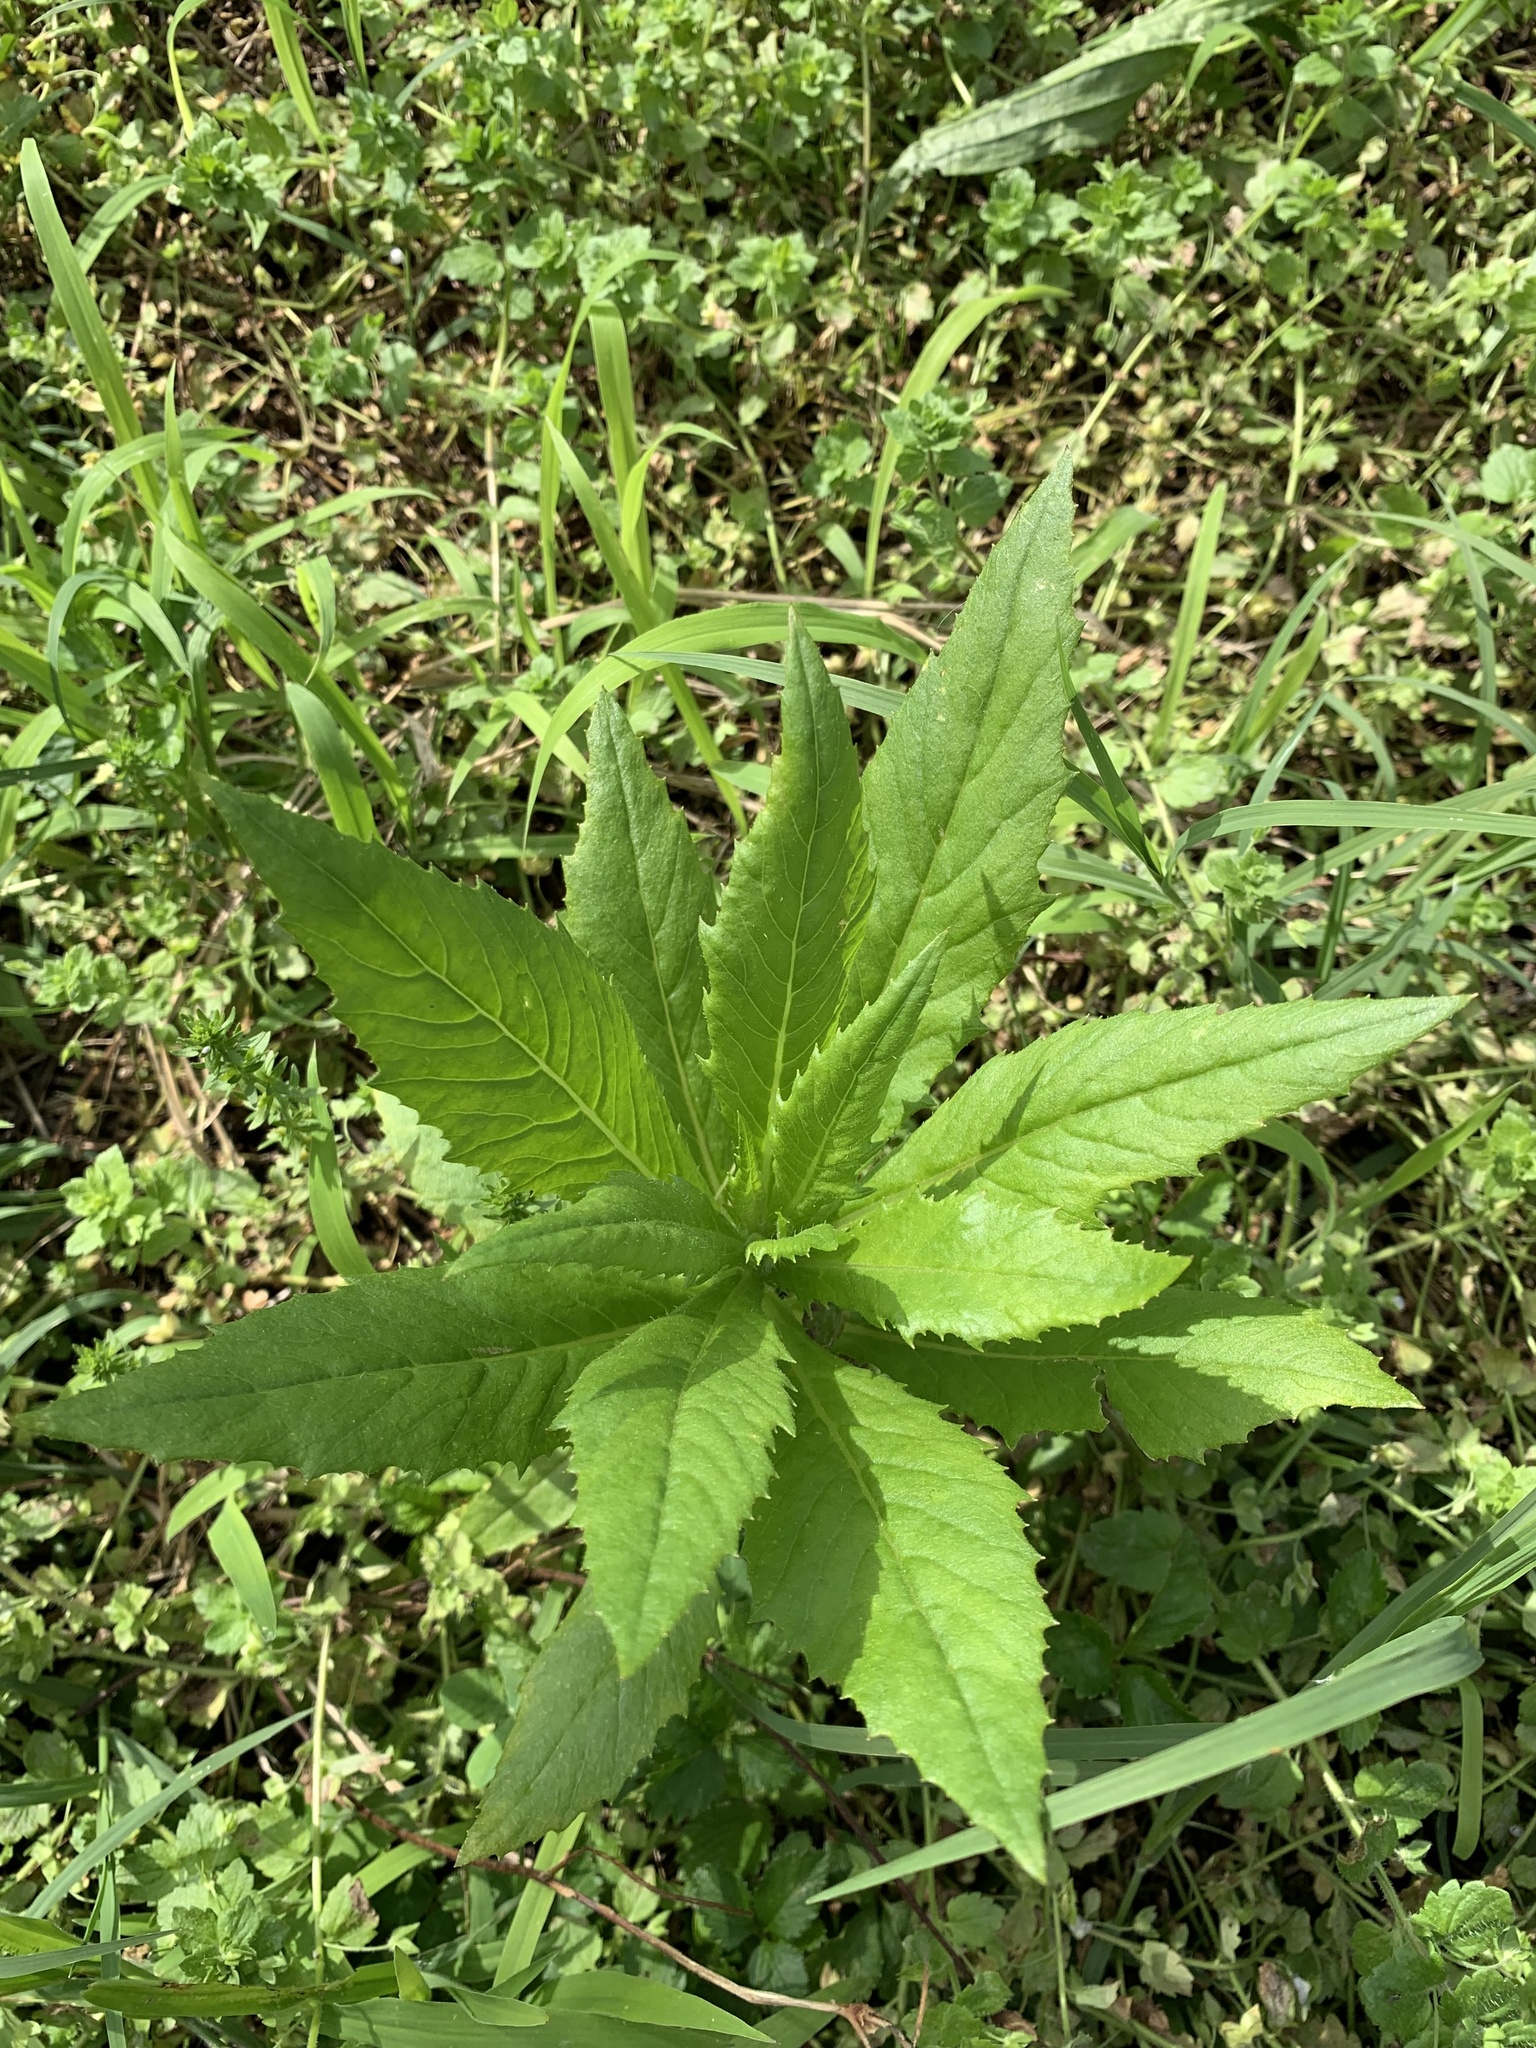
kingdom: Plantae
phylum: Tracheophyta
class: Magnoliopsida
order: Asterales
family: Asteraceae
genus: Erechtites
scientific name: Erechtites hieraciifolius
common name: American burnweed
